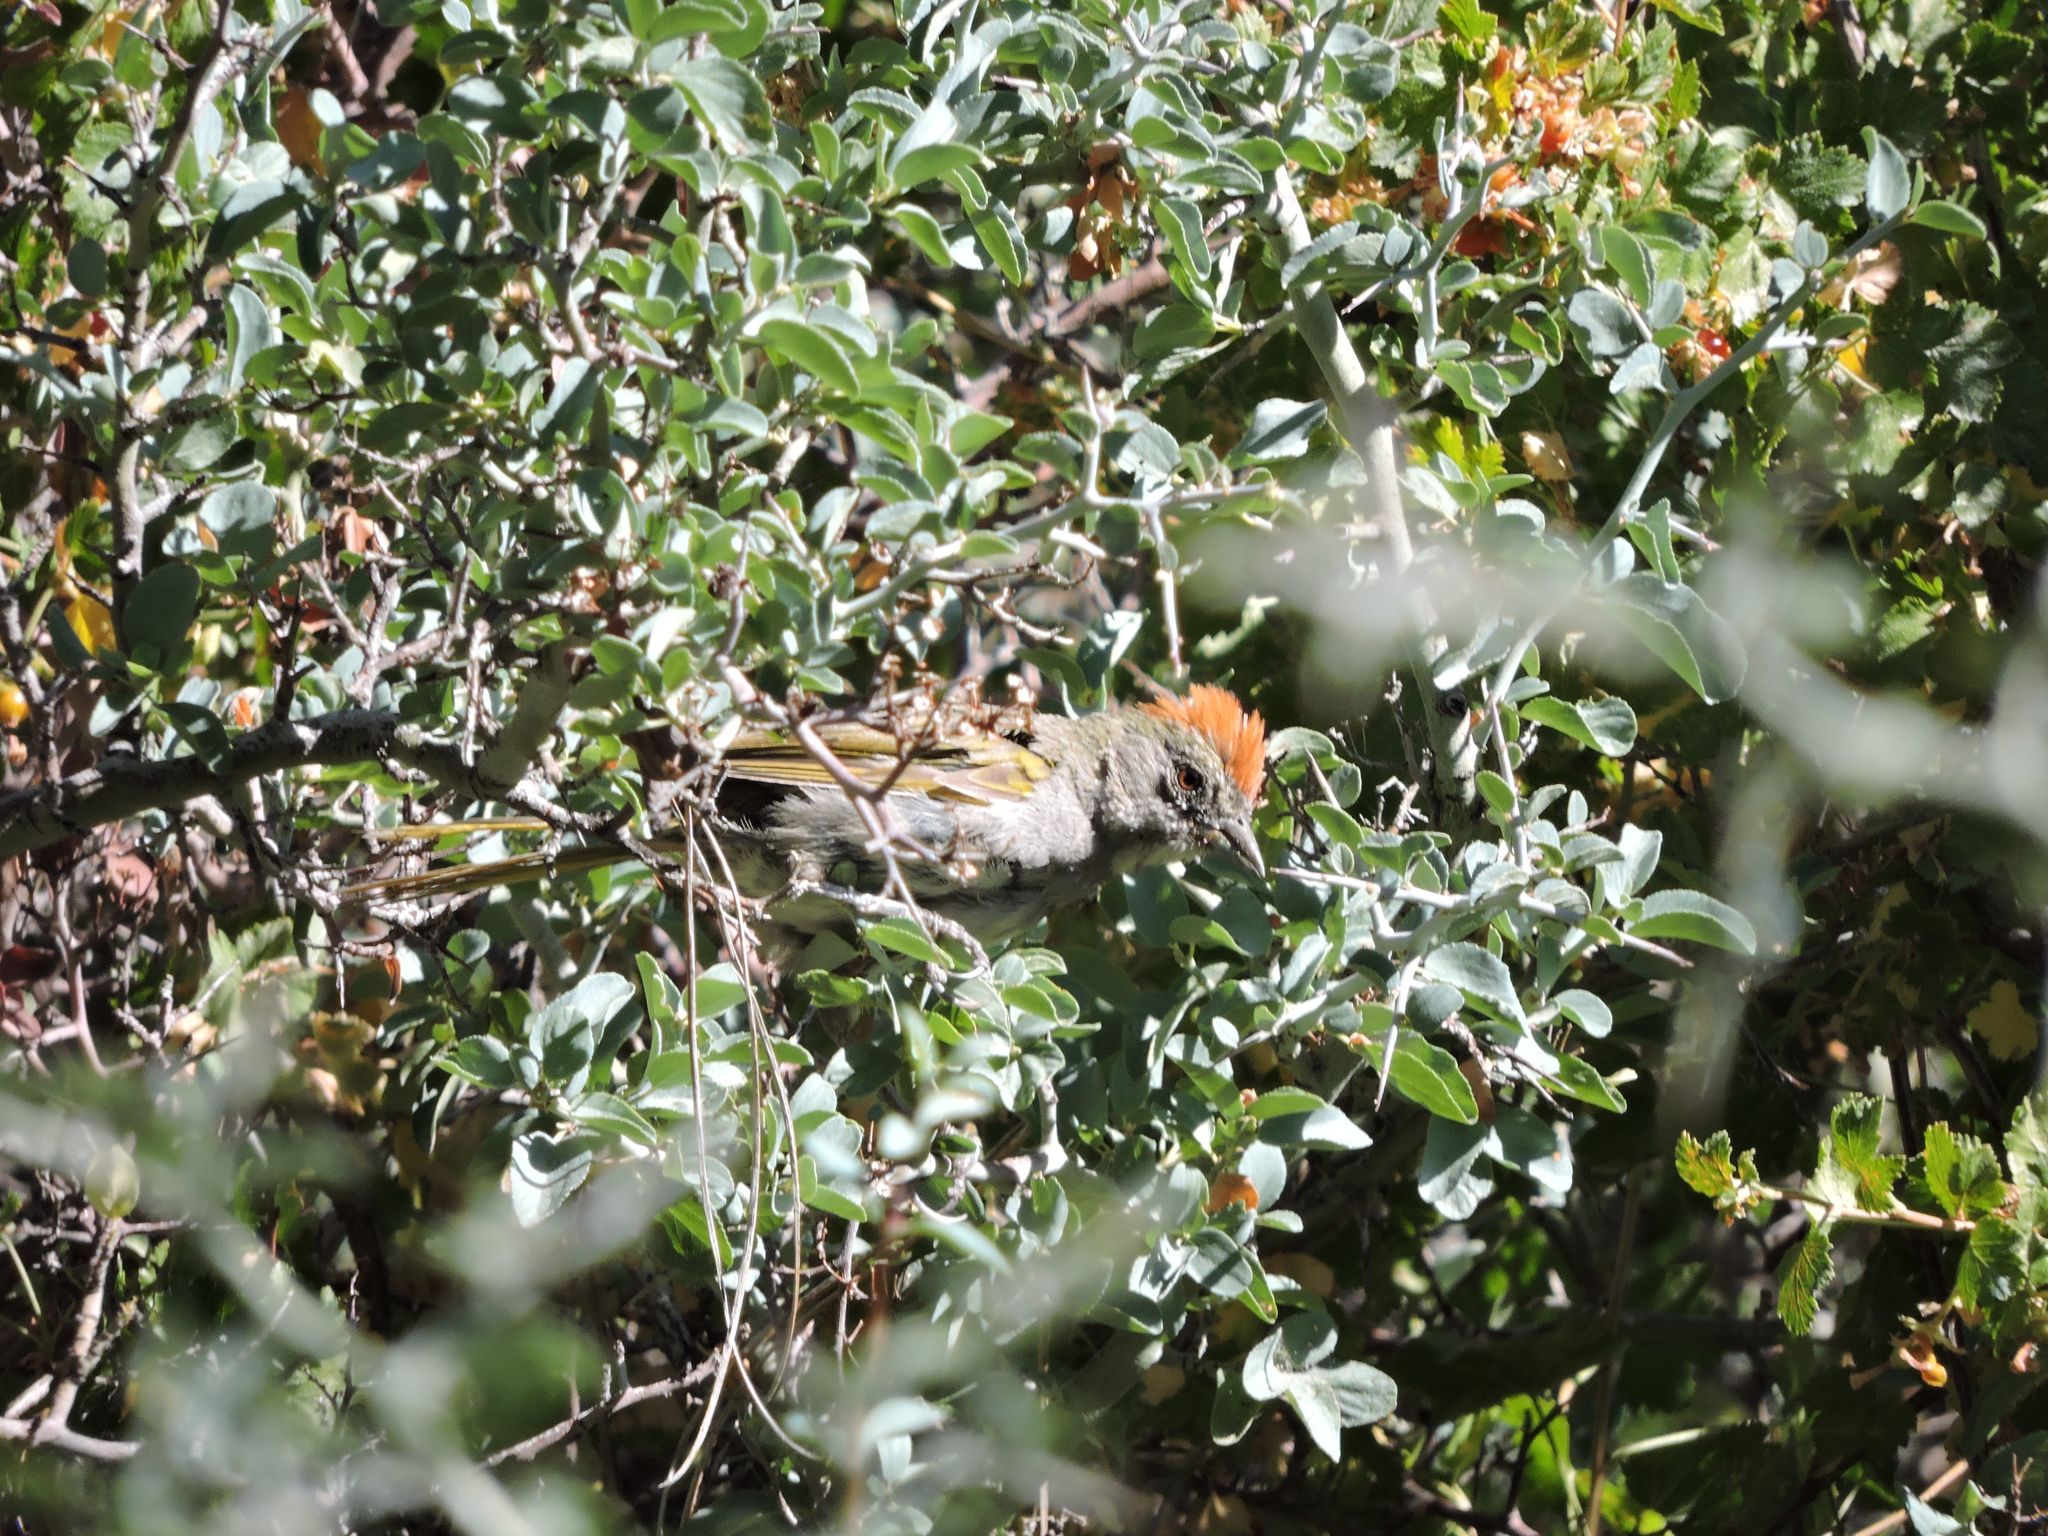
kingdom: Animalia
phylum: Chordata
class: Aves
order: Passeriformes
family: Passerellidae
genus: Pipilo
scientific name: Pipilo chlorurus
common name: Green-tailed towhee
